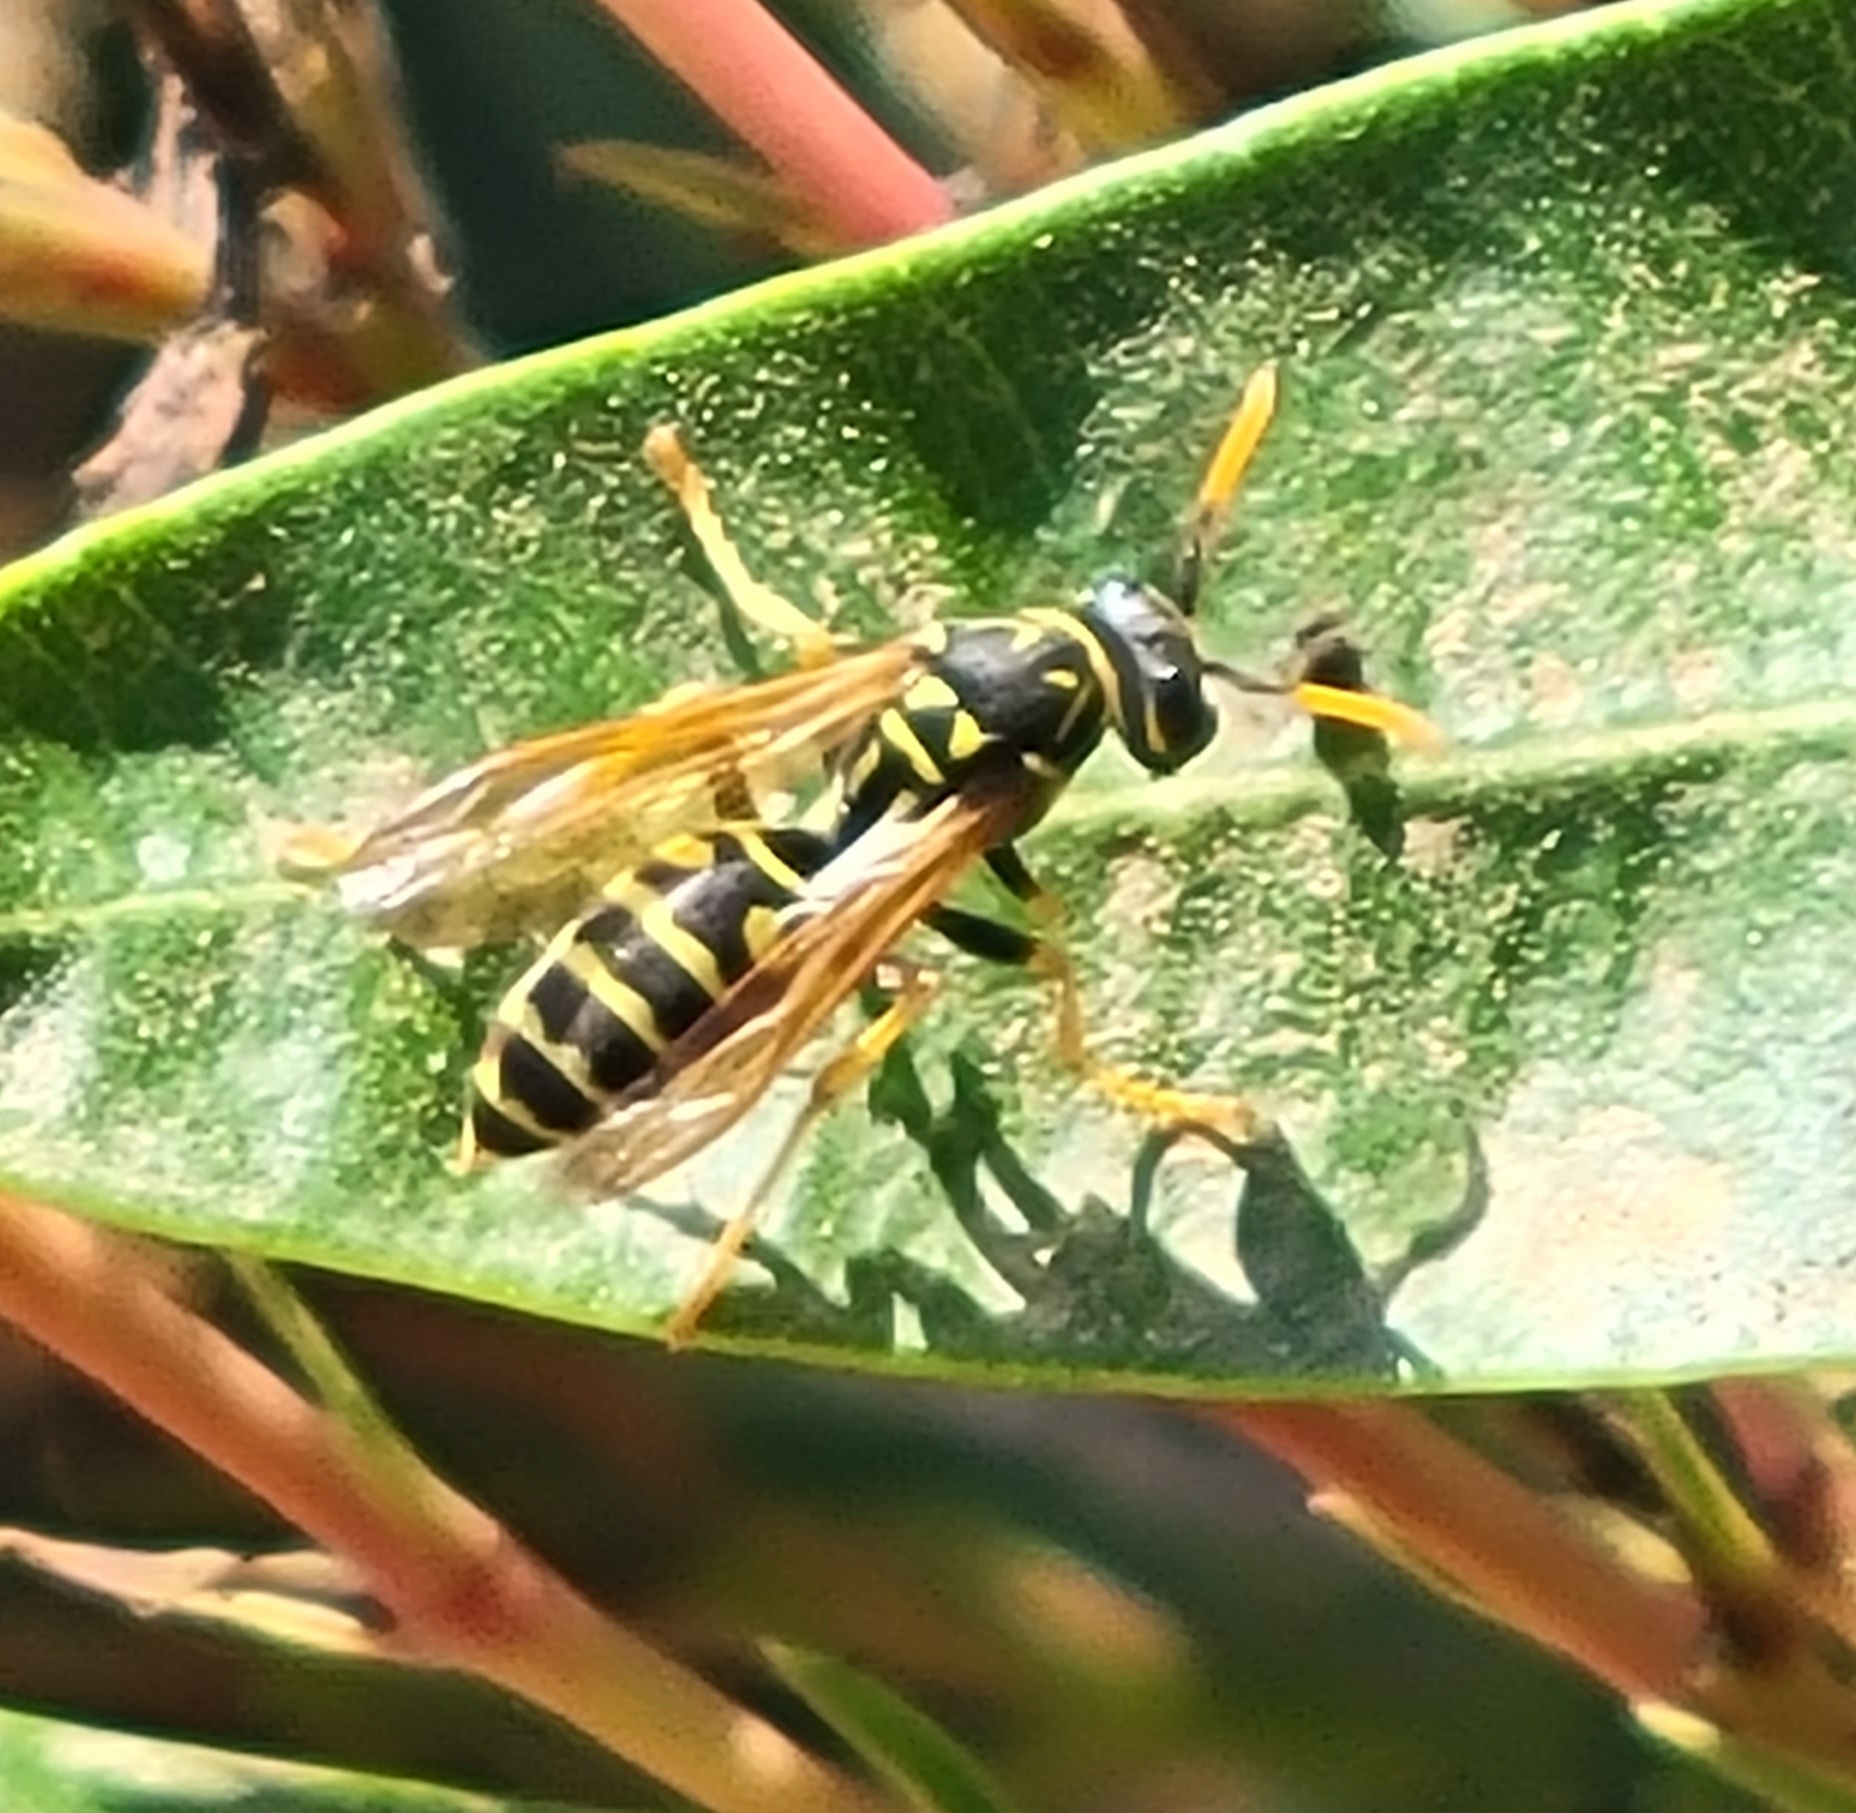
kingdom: Animalia
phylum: Arthropoda
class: Insecta
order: Hymenoptera
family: Eumenidae
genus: Polistes
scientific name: Polistes dominula
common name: Paper wasp
